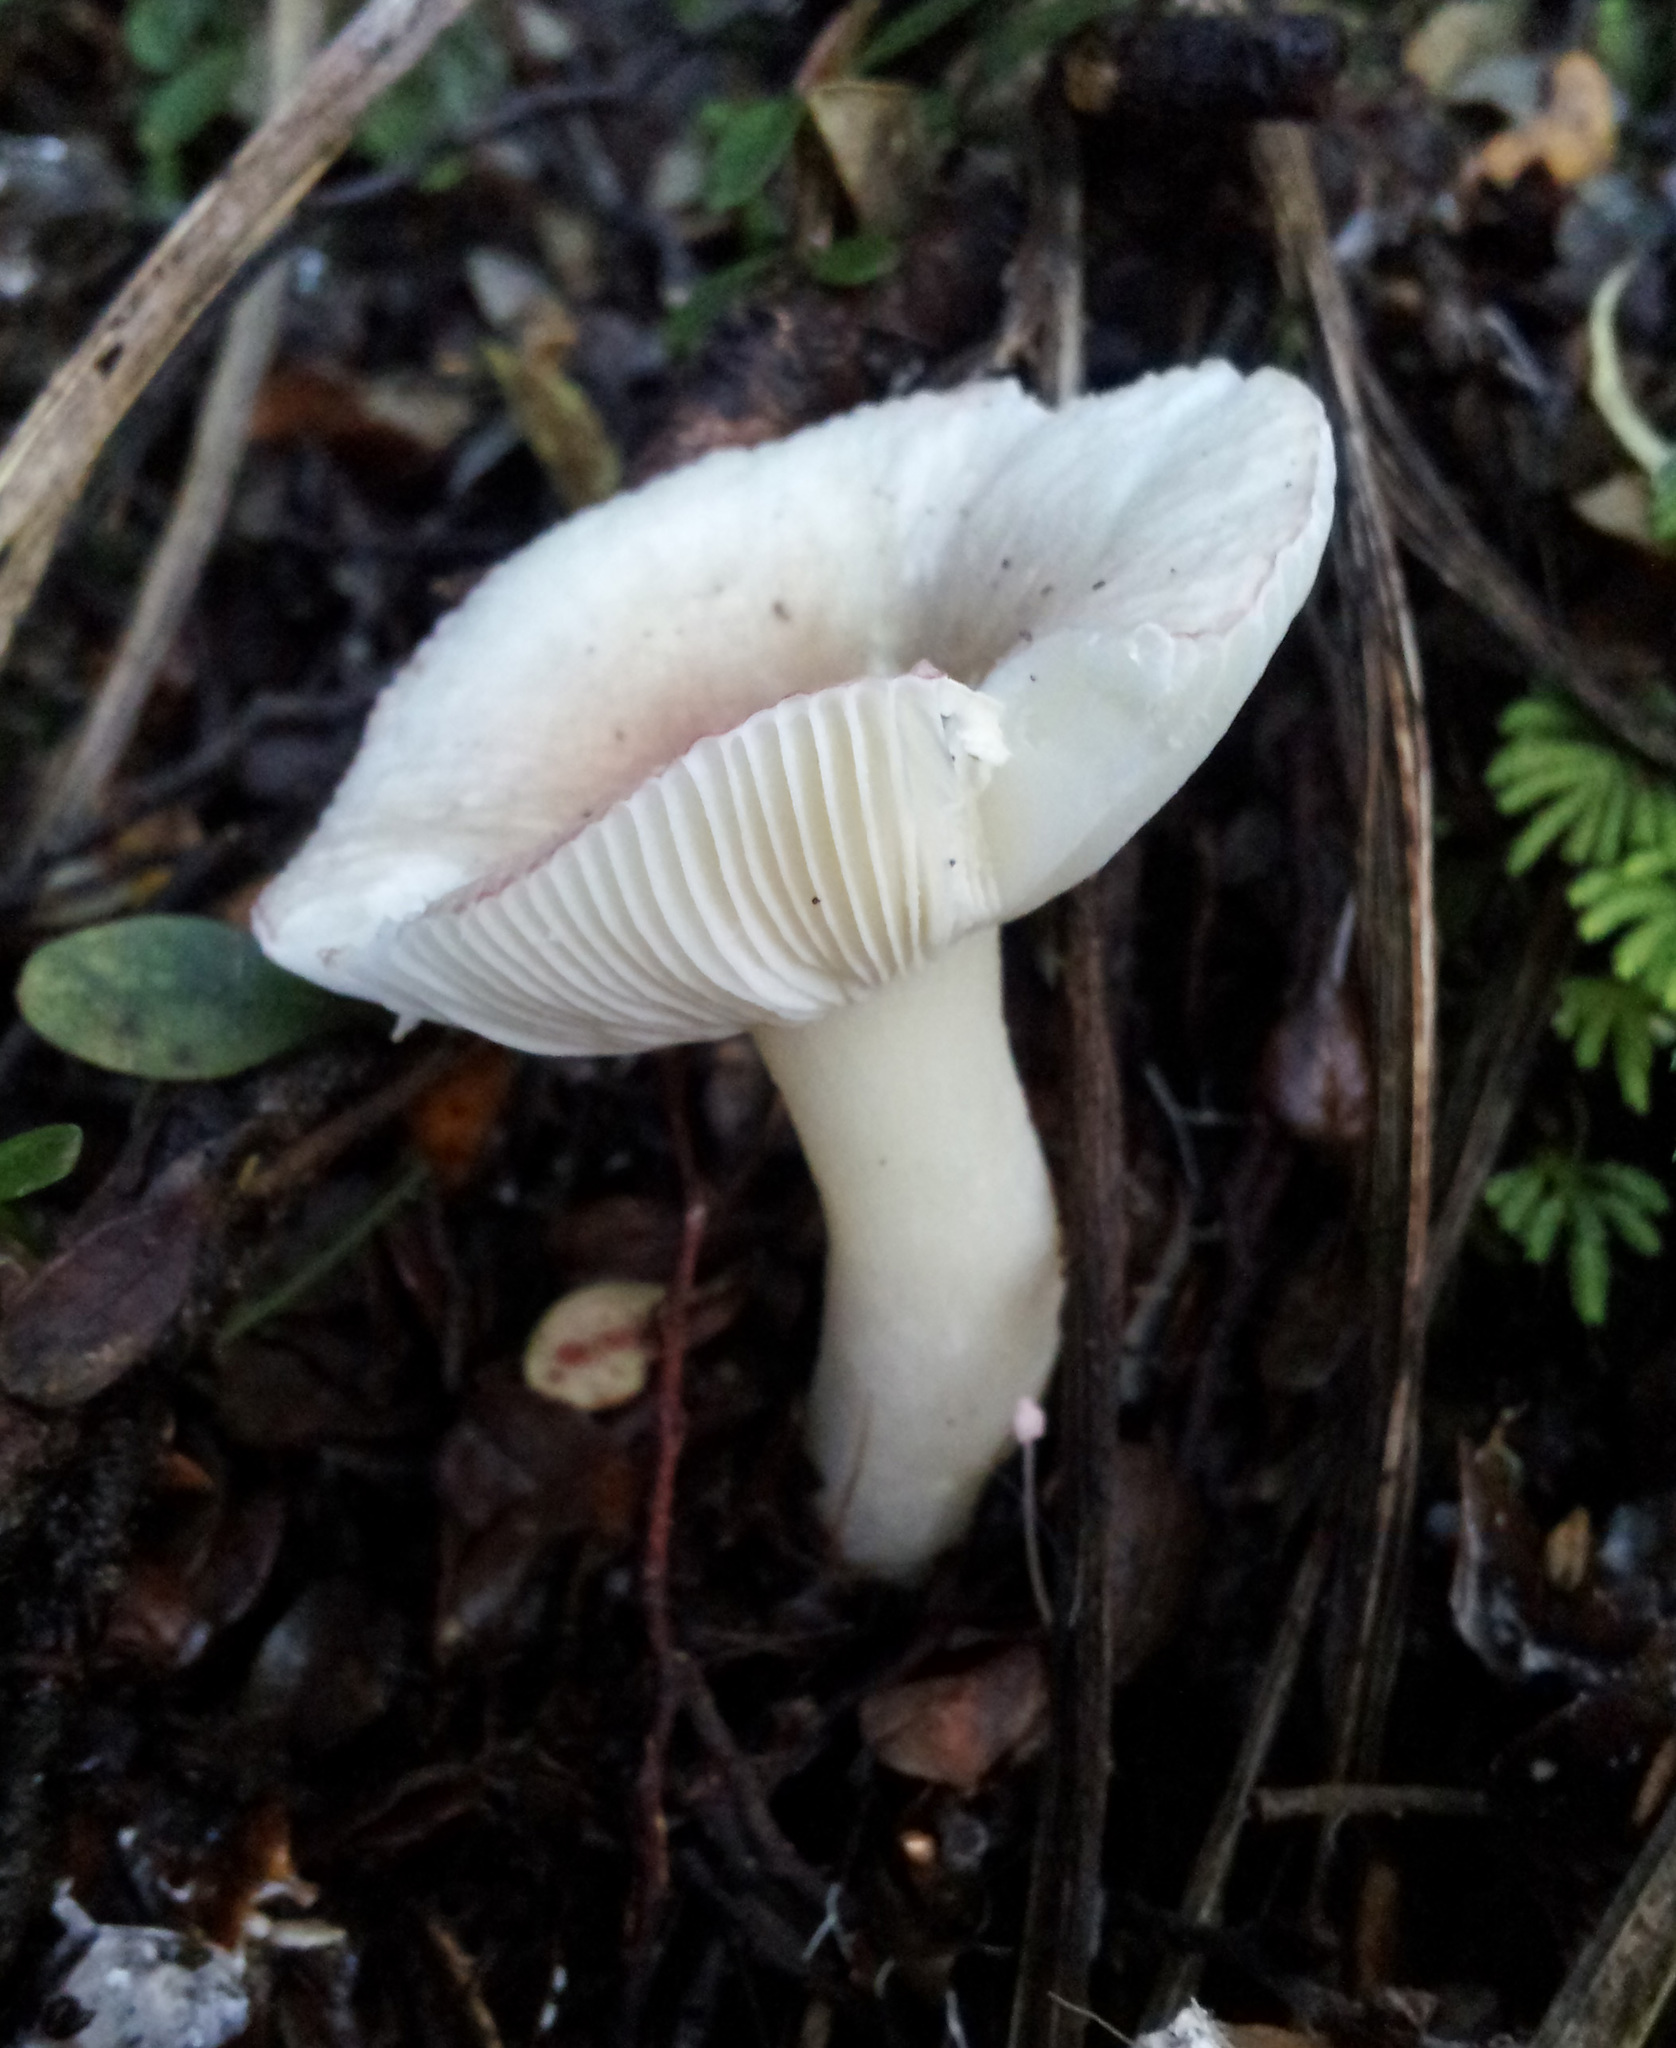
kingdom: Fungi
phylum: Basidiomycota
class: Agaricomycetes
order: Russulales
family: Russulaceae
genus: Russula
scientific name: Russula purpureotincta
